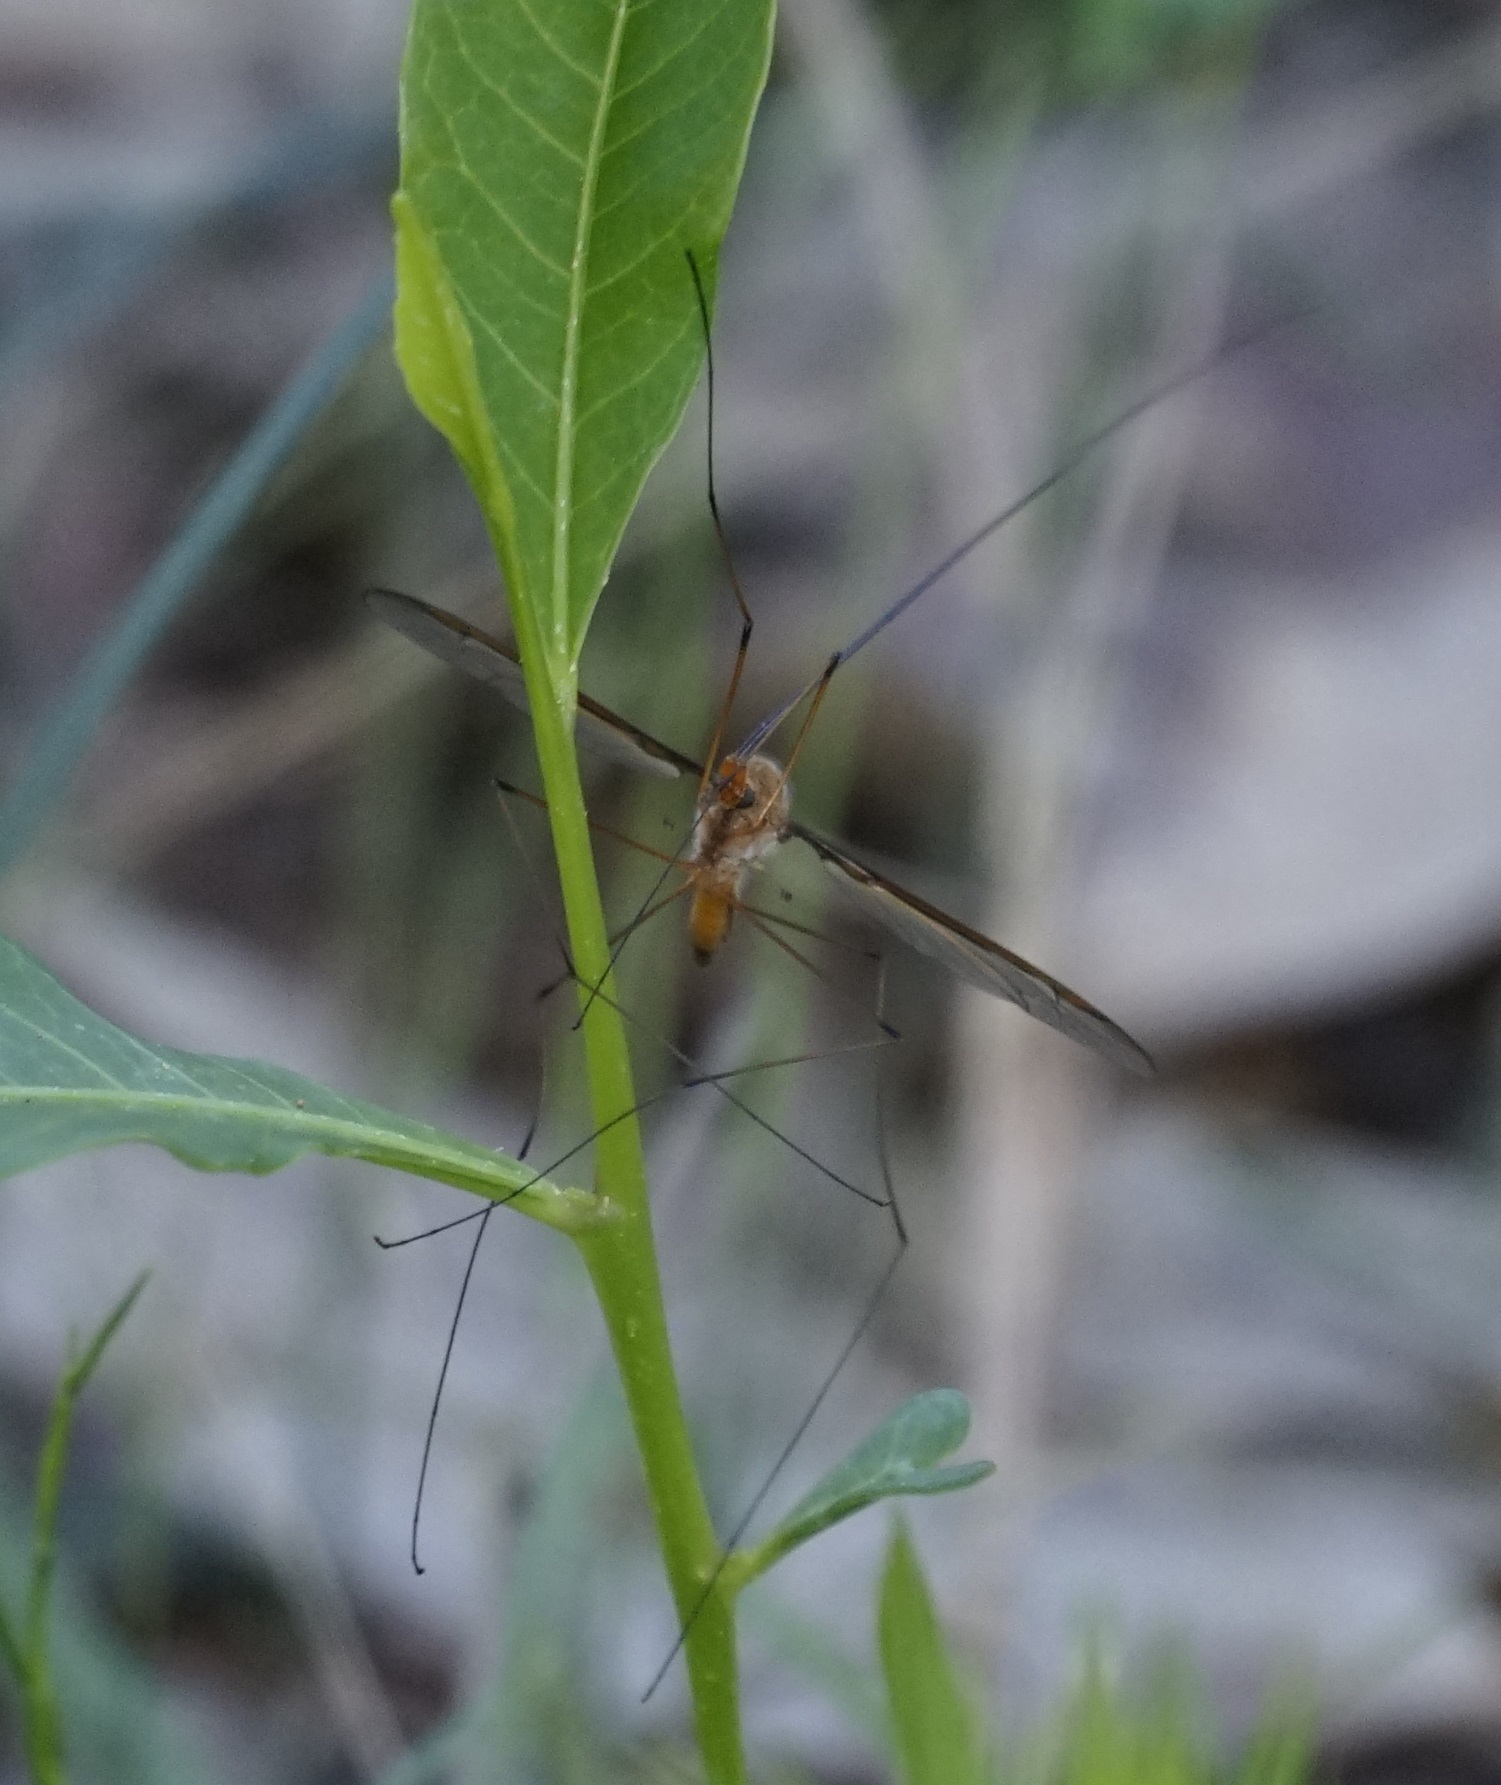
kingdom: Animalia
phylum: Arthropoda
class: Insecta
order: Diptera
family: Tipulidae
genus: Leptotarsus
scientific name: Leptotarsus costalis
